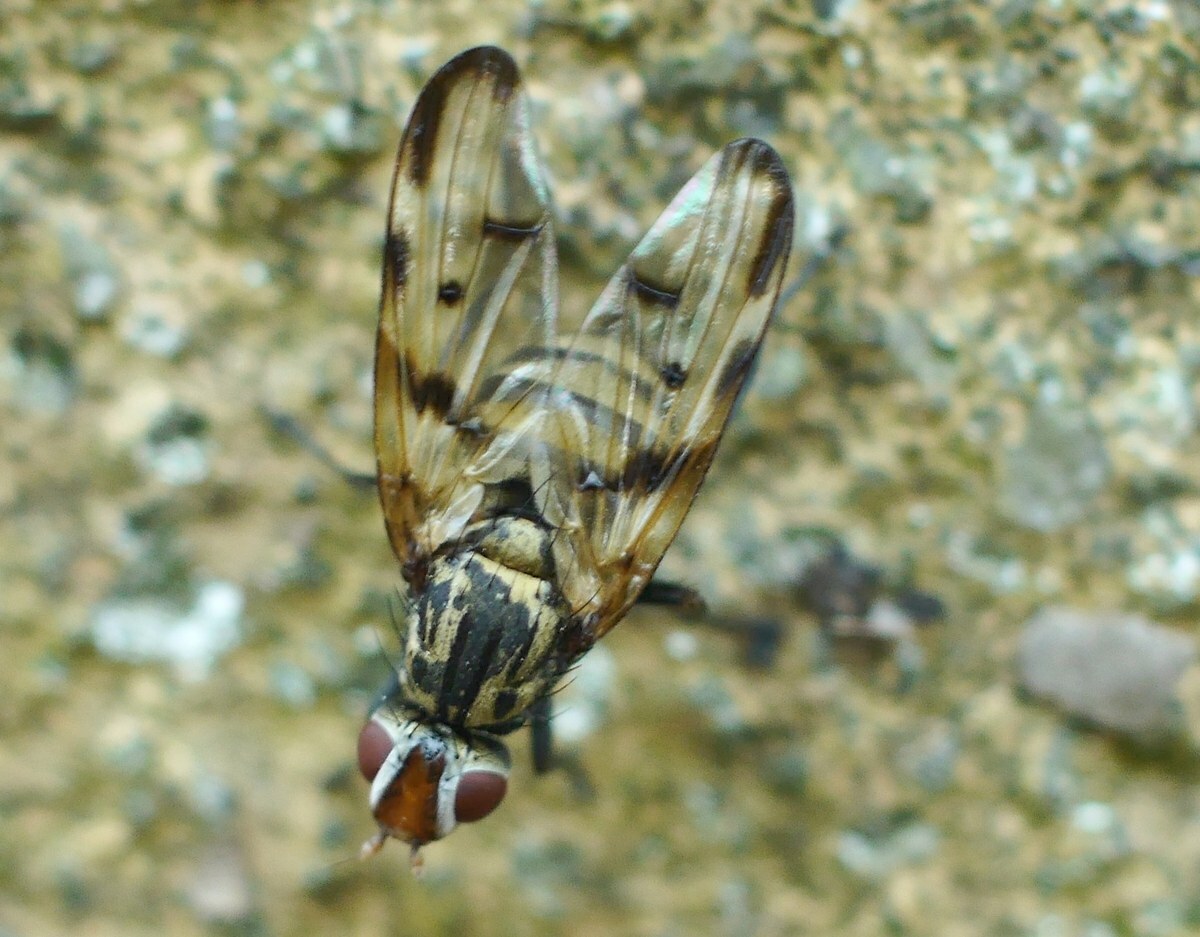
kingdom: Animalia
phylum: Arthropoda
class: Insecta
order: Diptera
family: Ulidiidae
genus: Otites
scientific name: Otites formosa
